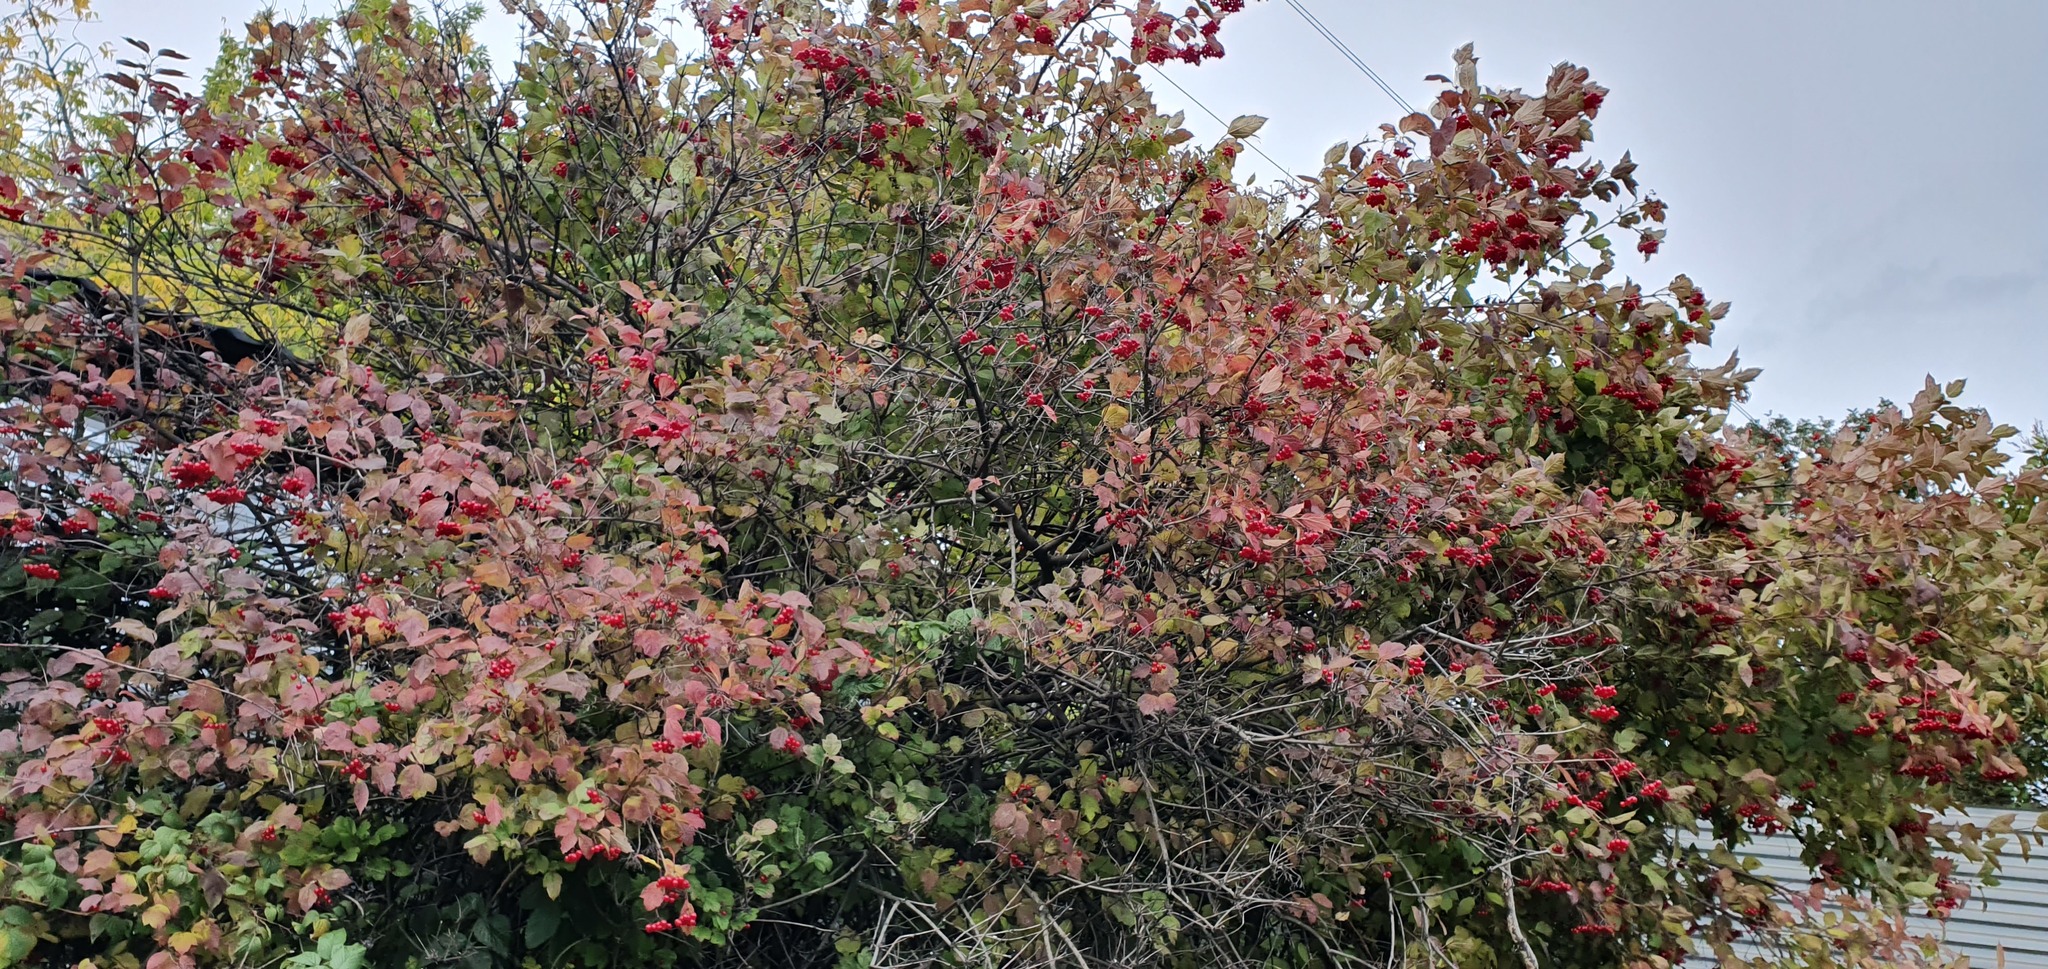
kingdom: Plantae
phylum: Tracheophyta
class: Magnoliopsida
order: Dipsacales
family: Viburnaceae
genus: Viburnum
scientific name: Viburnum opulus
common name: Guelder-rose
